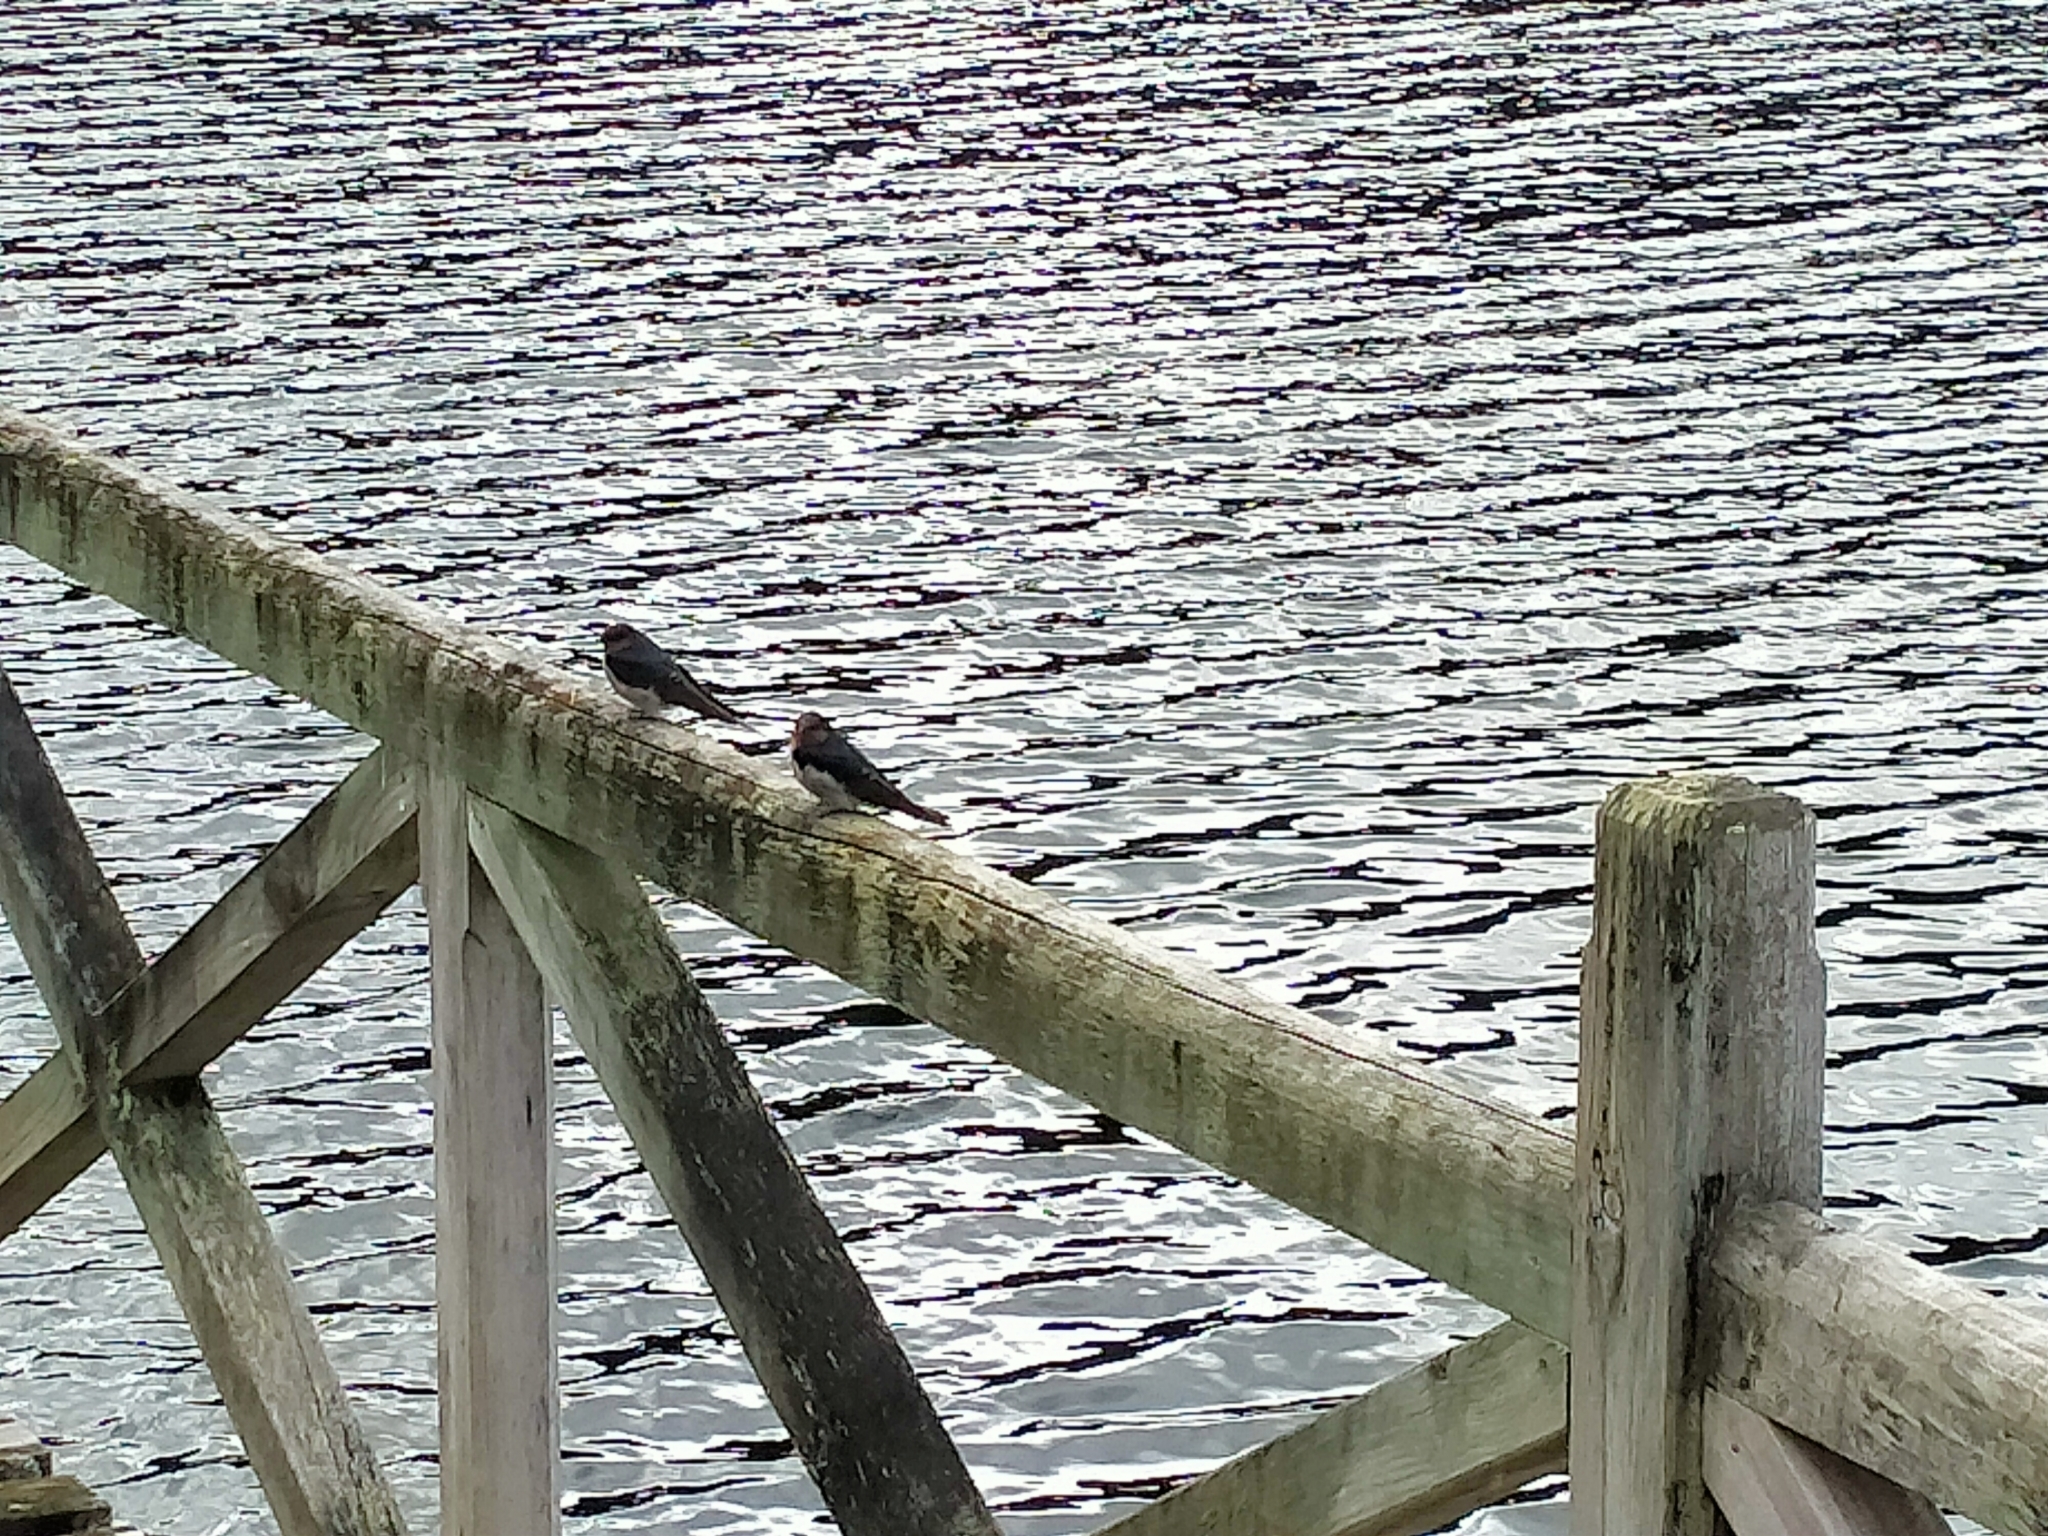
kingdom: Animalia
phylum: Chordata
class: Aves
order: Passeriformes
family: Hirundinidae
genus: Hirundo
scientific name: Hirundo neoxena
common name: Welcome swallow
